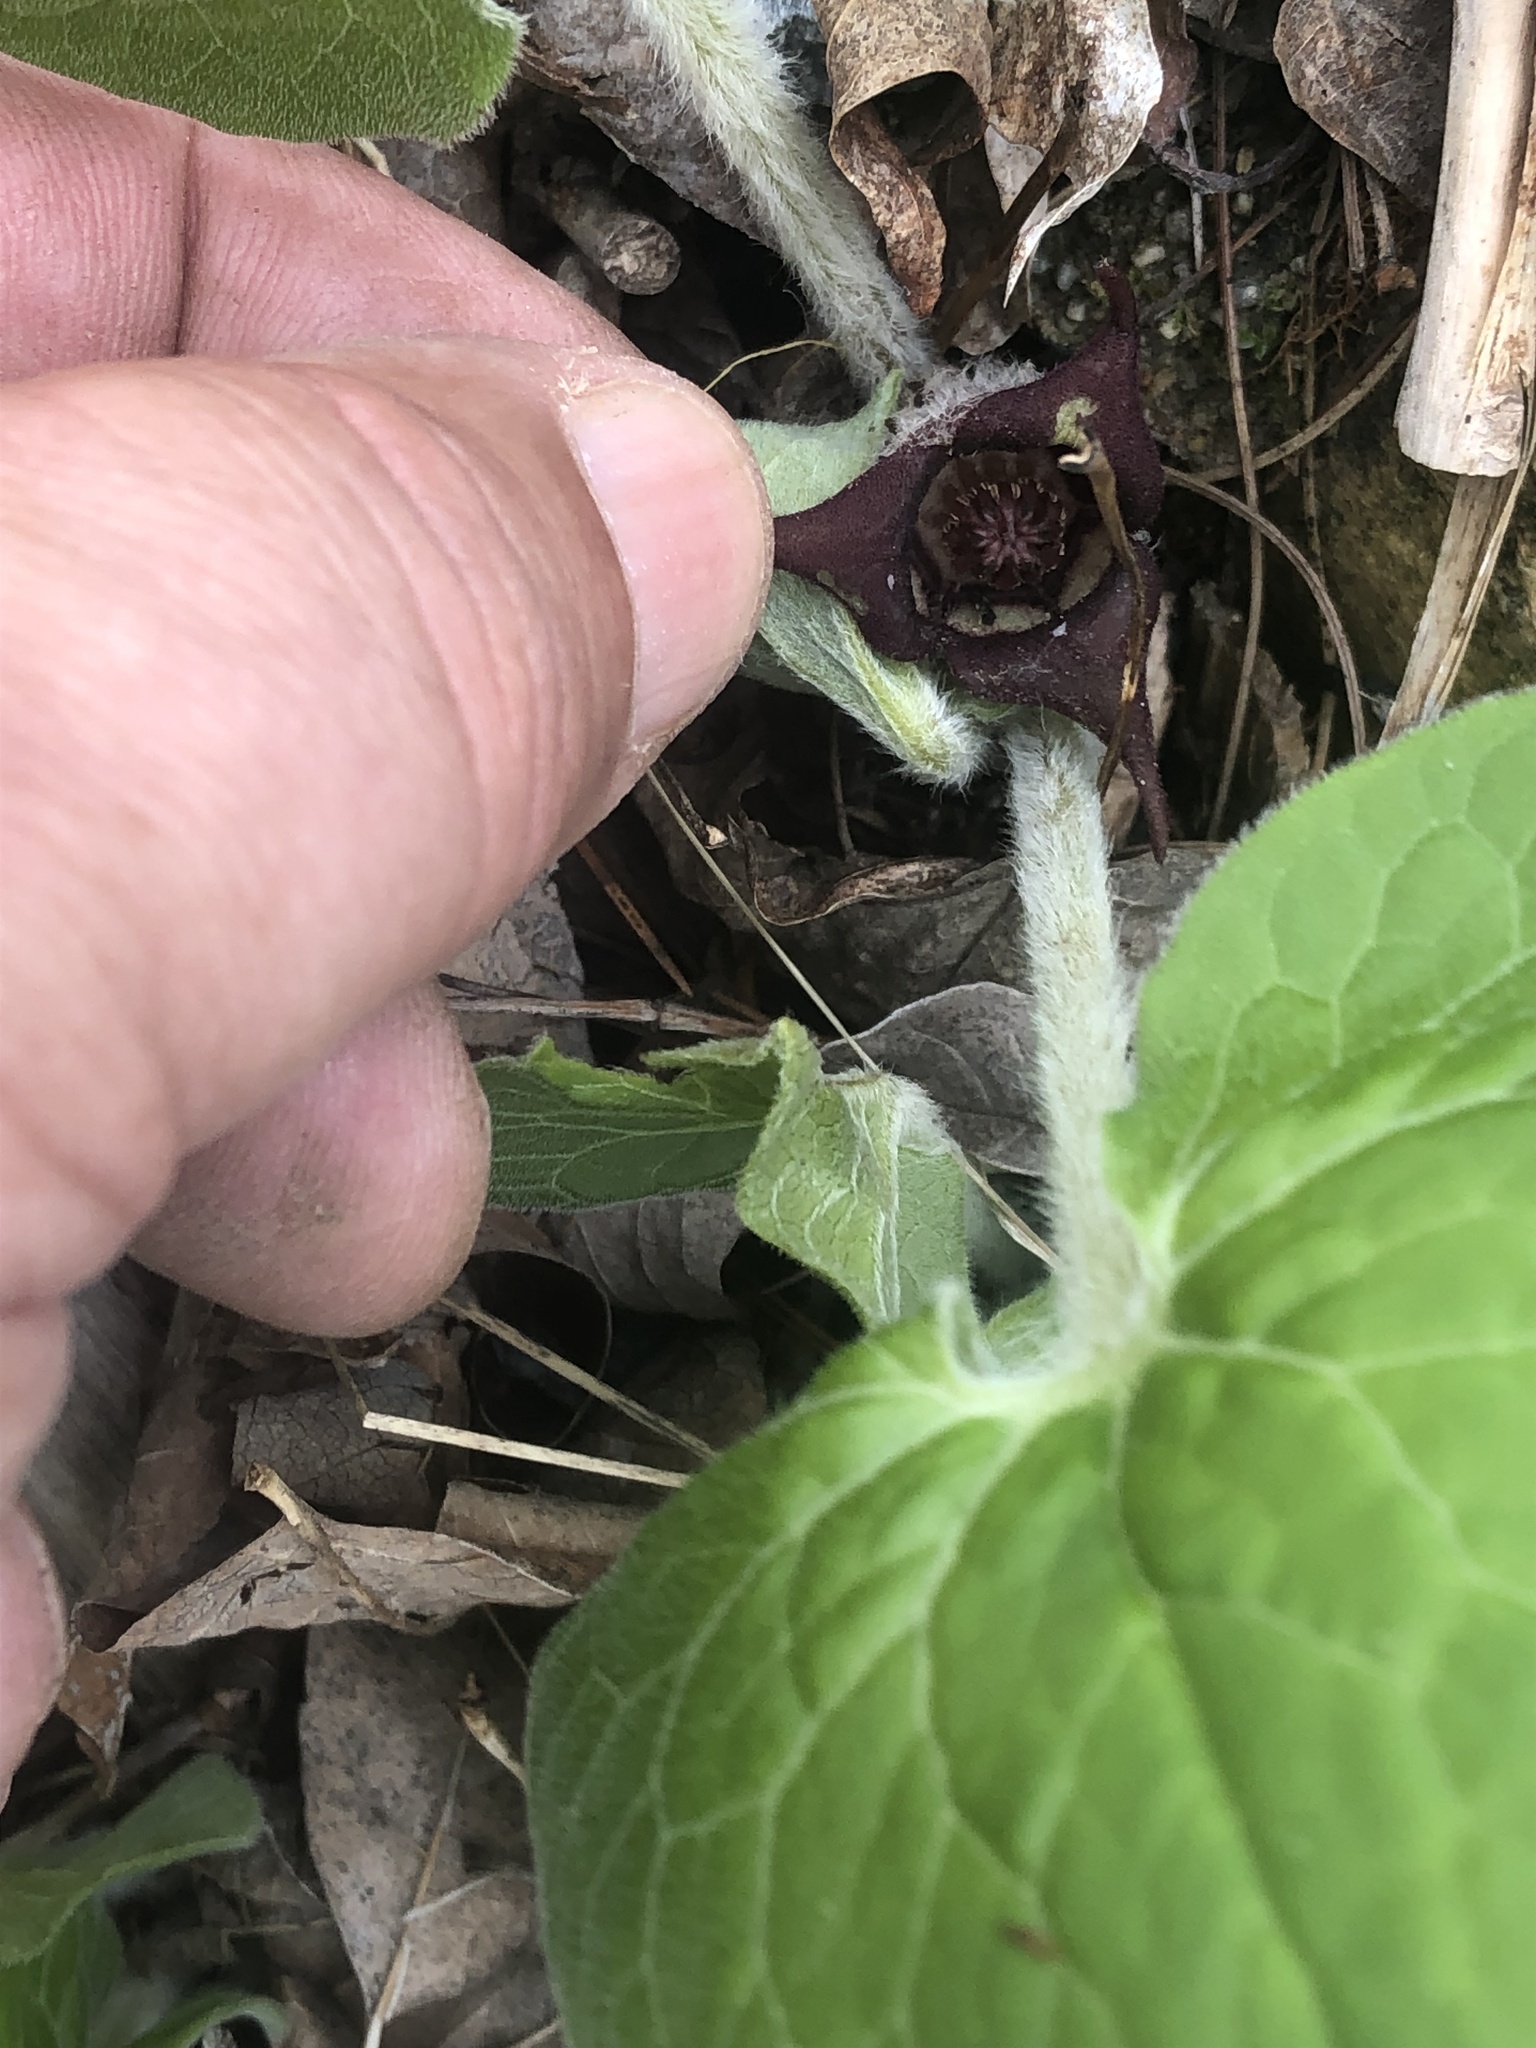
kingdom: Plantae
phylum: Tracheophyta
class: Magnoliopsida
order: Piperales
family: Aristolochiaceae
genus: Asarum
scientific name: Asarum canadense
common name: Wild ginger
